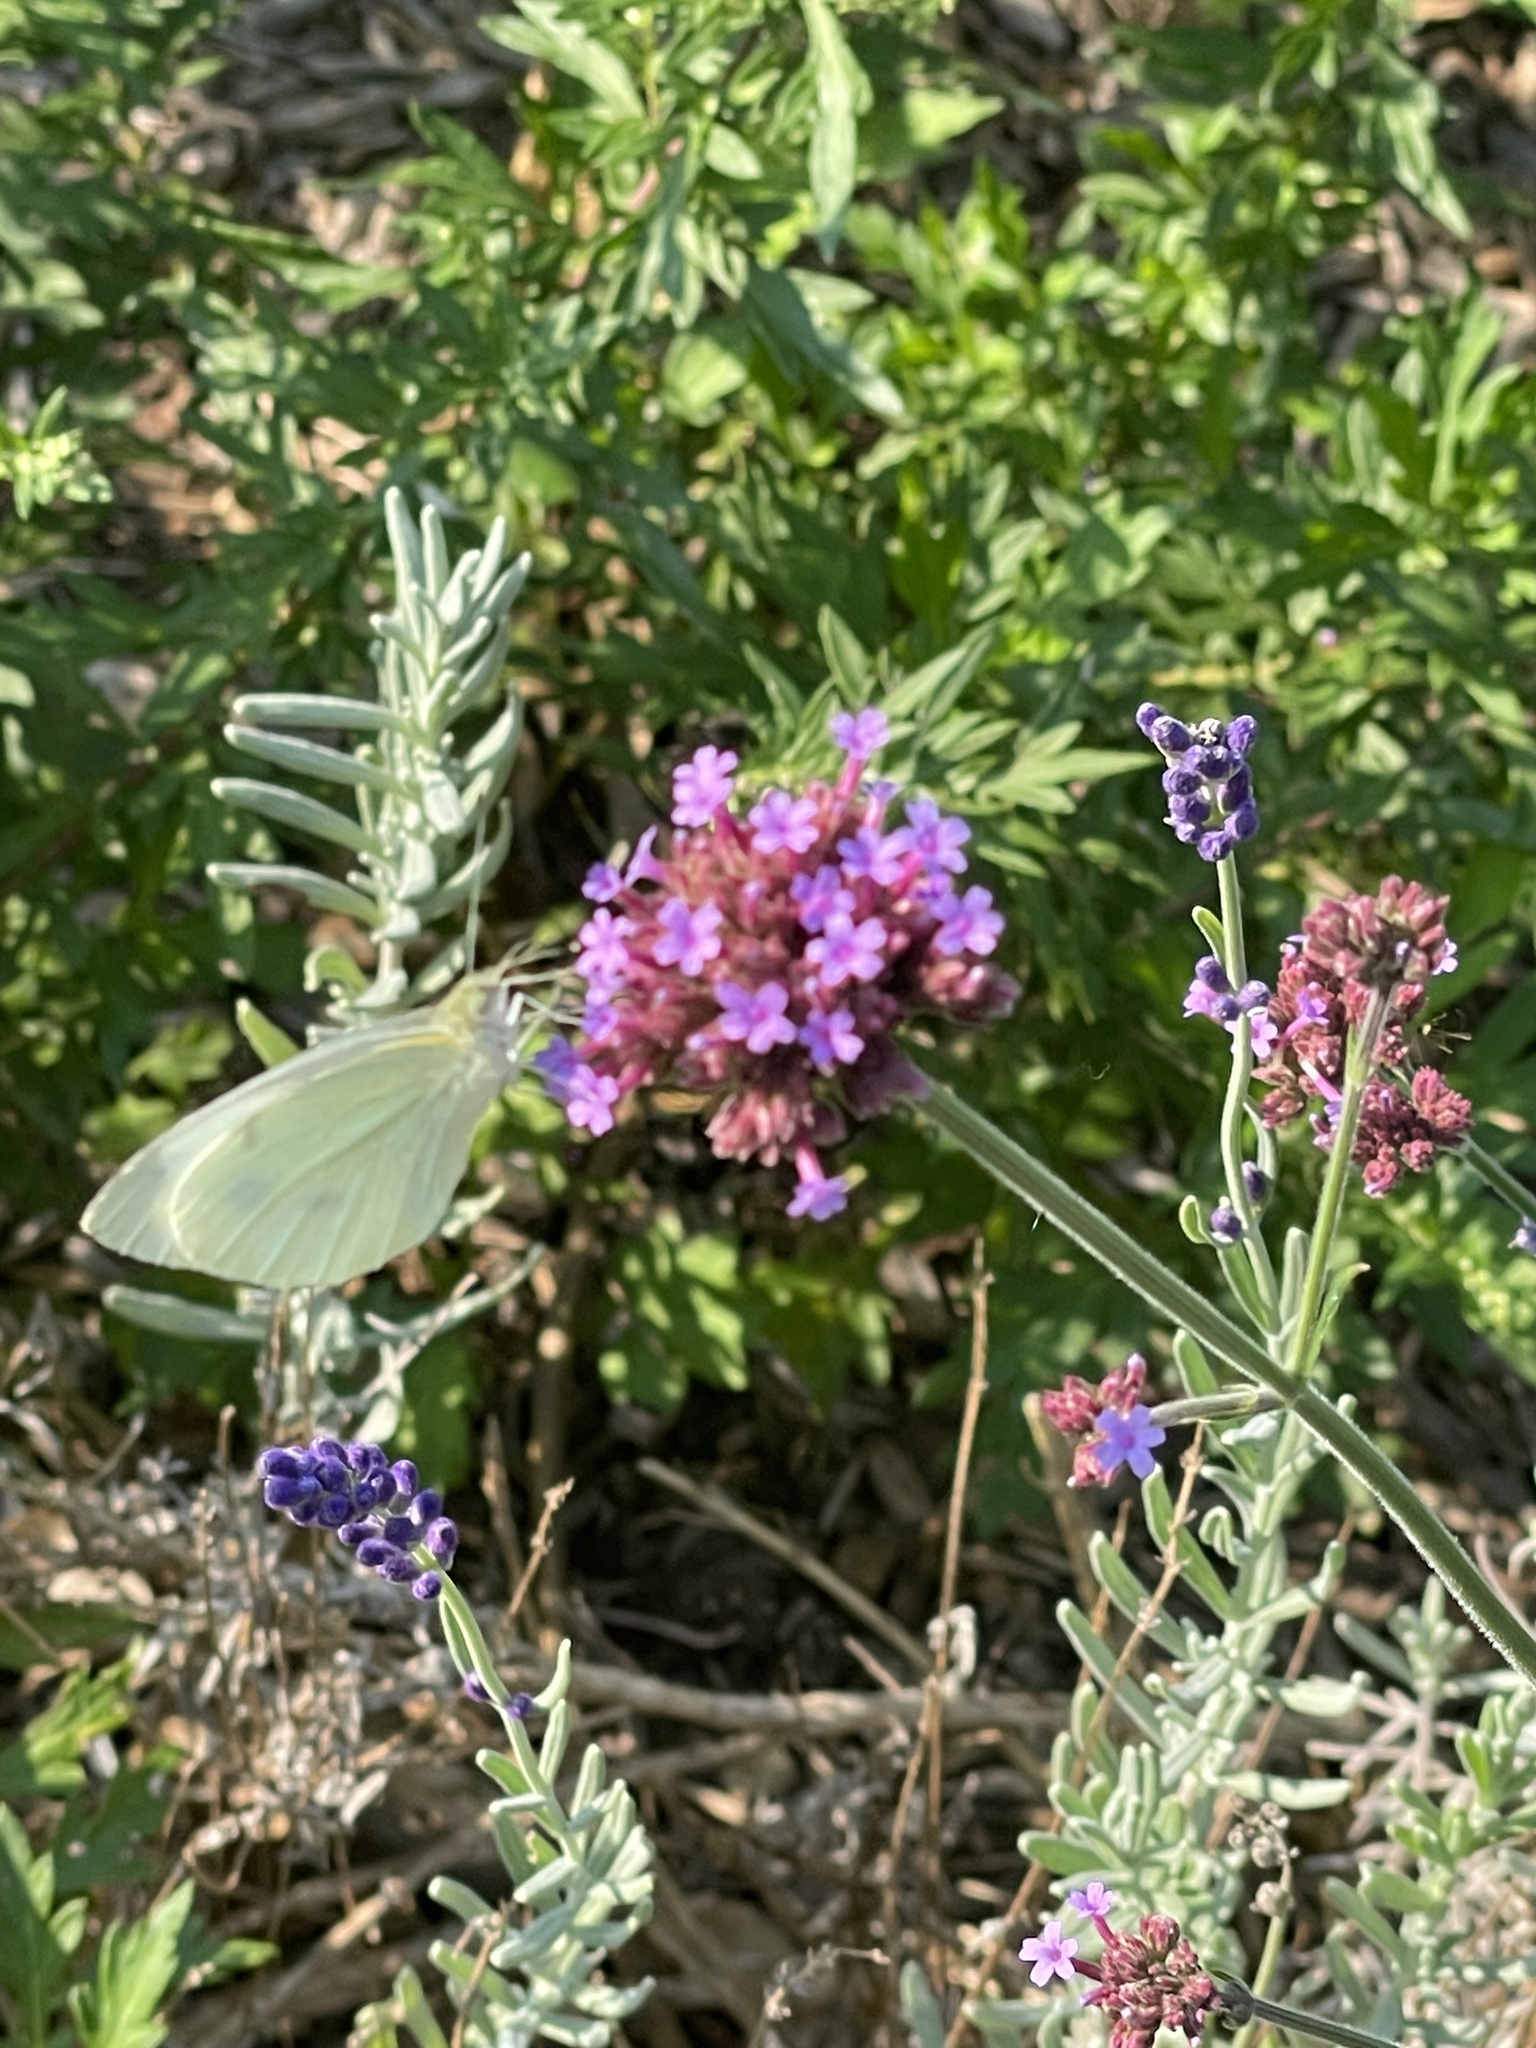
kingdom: Animalia
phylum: Arthropoda
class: Insecta
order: Lepidoptera
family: Pieridae
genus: Pieris
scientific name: Pieris rapae
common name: Small white
